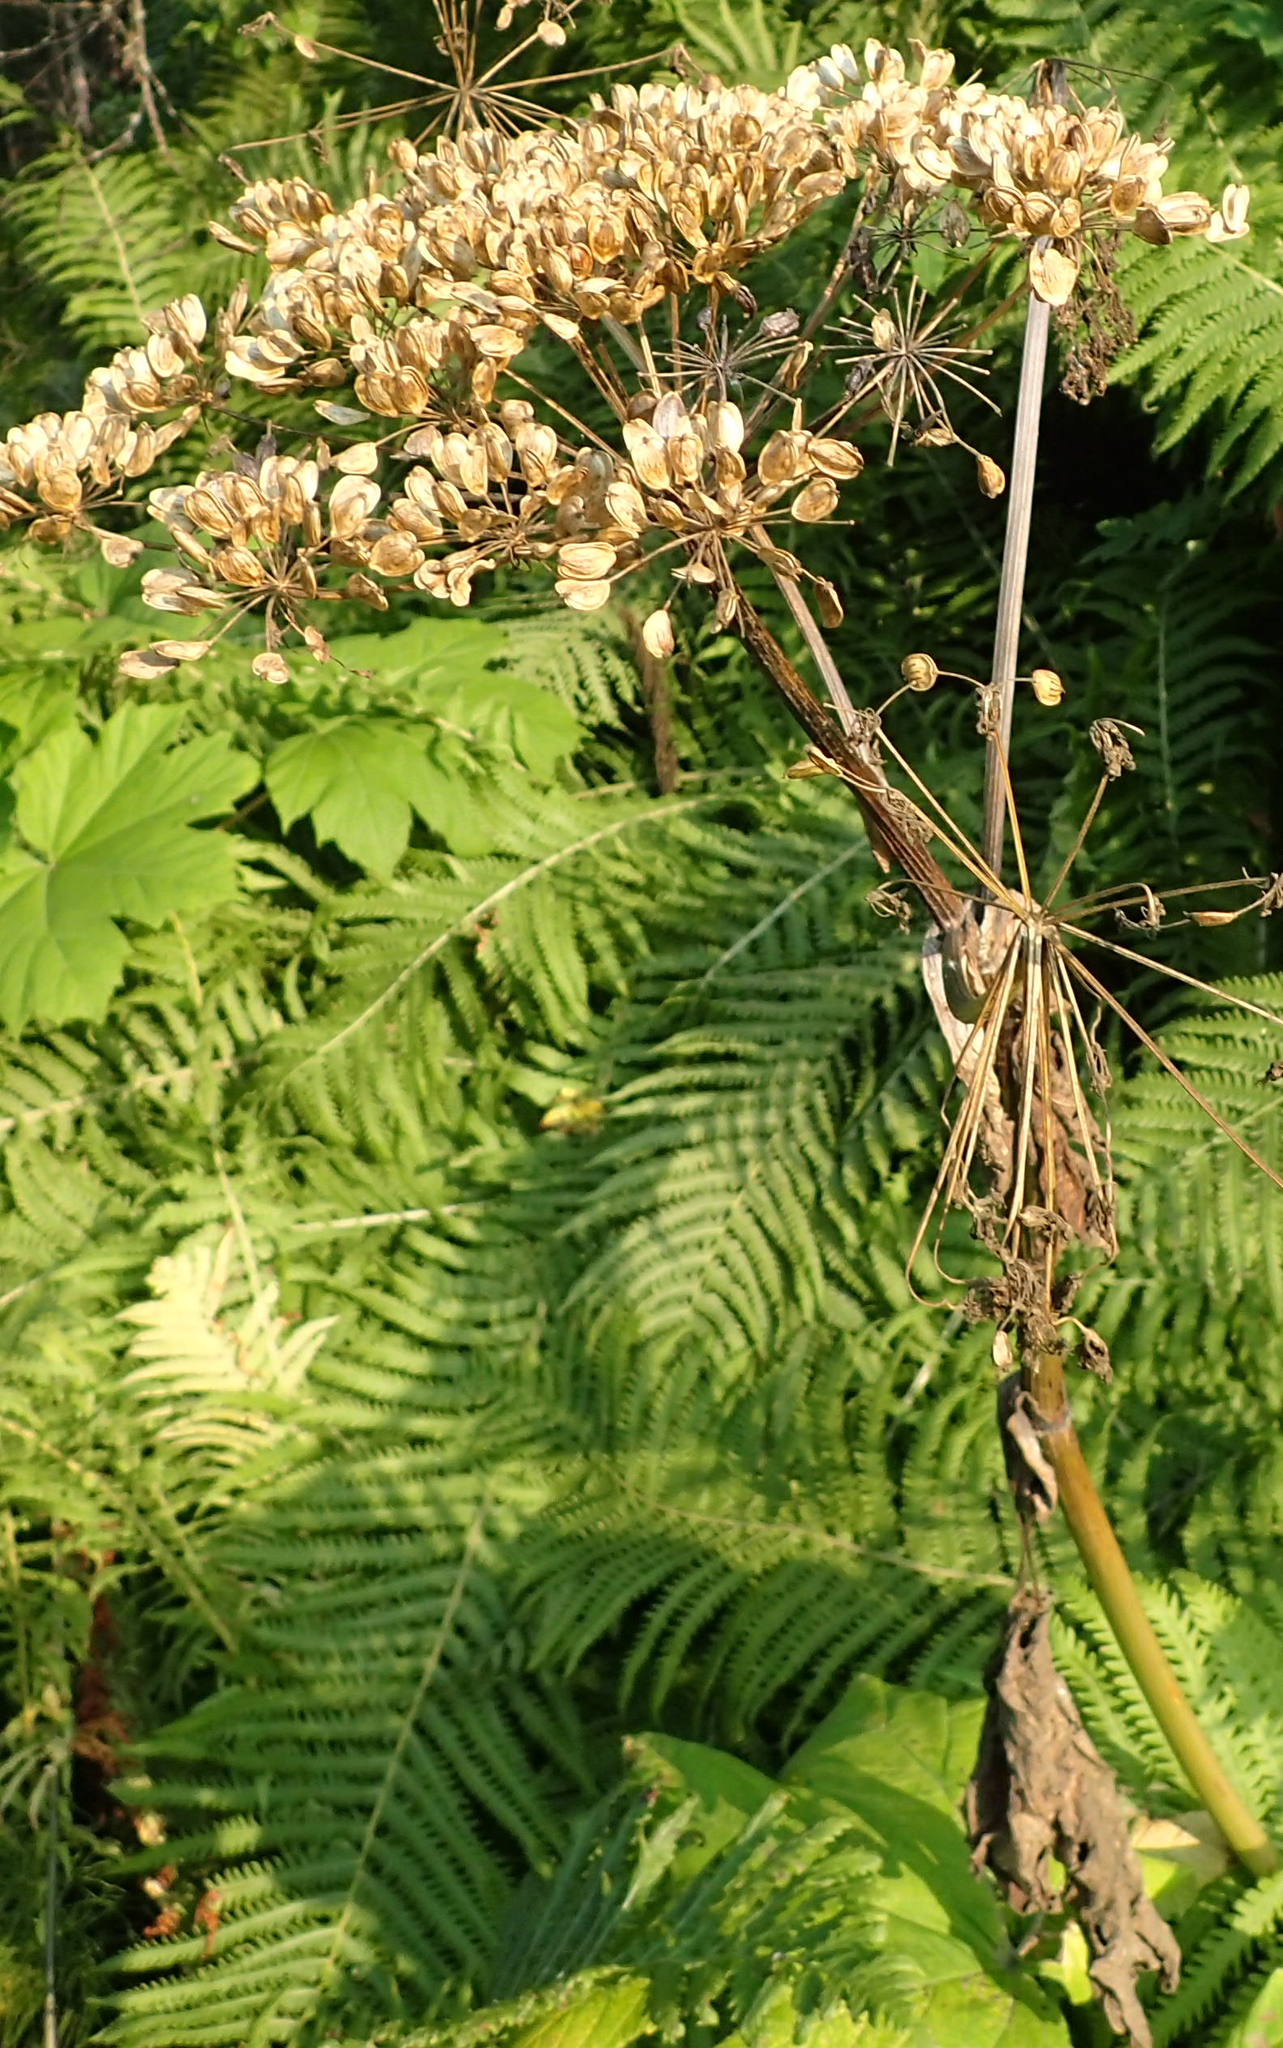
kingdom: Plantae
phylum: Tracheophyta
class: Magnoliopsida
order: Apiales
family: Apiaceae
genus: Heracleum
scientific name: Heracleum maximum
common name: American cow parsnip
